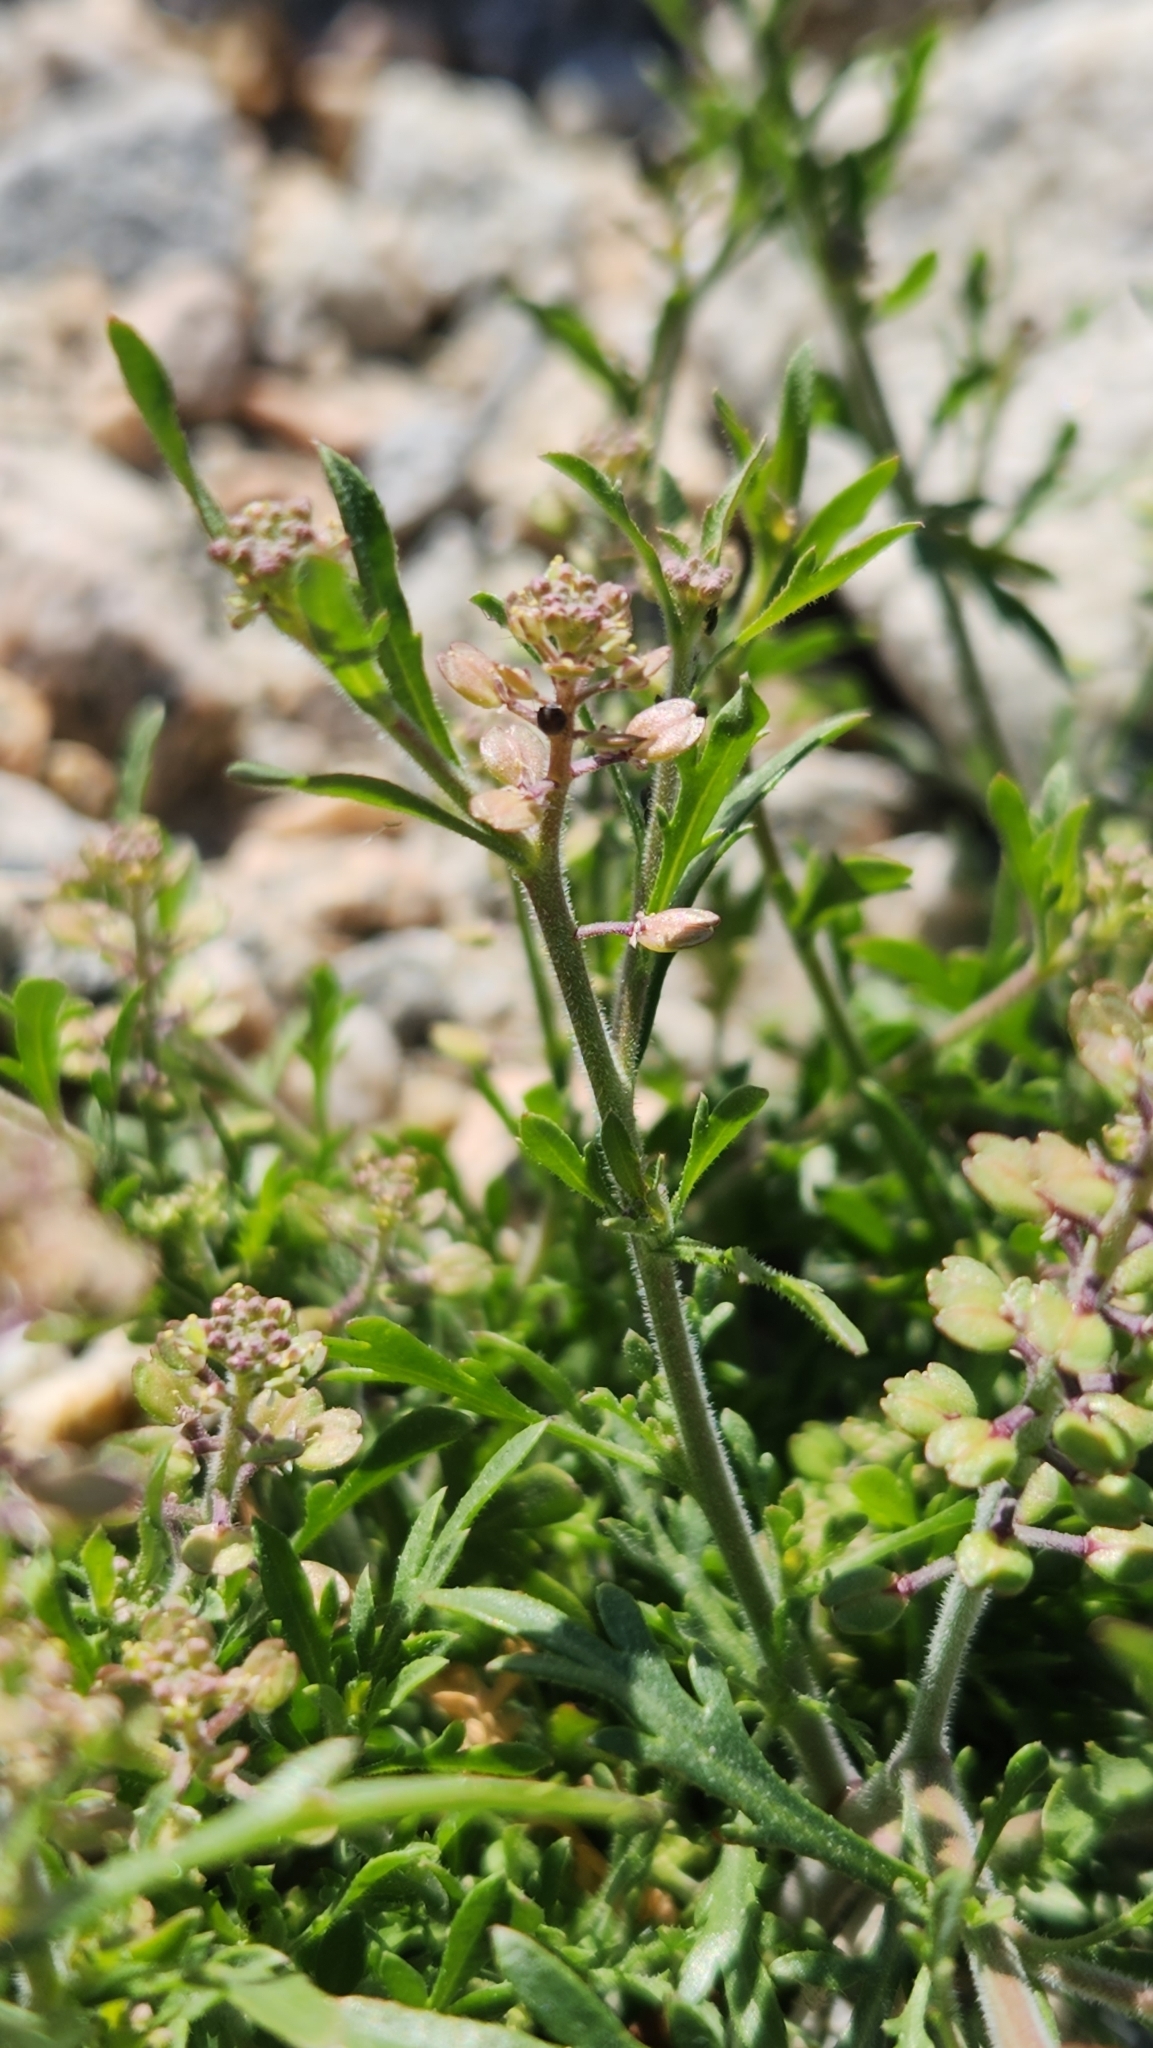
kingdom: Plantae
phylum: Tracheophyta
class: Magnoliopsida
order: Brassicales
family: Brassicaceae
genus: Lepidium
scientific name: Lepidium lasiocarpum
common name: Hairy-pod pepperwort
